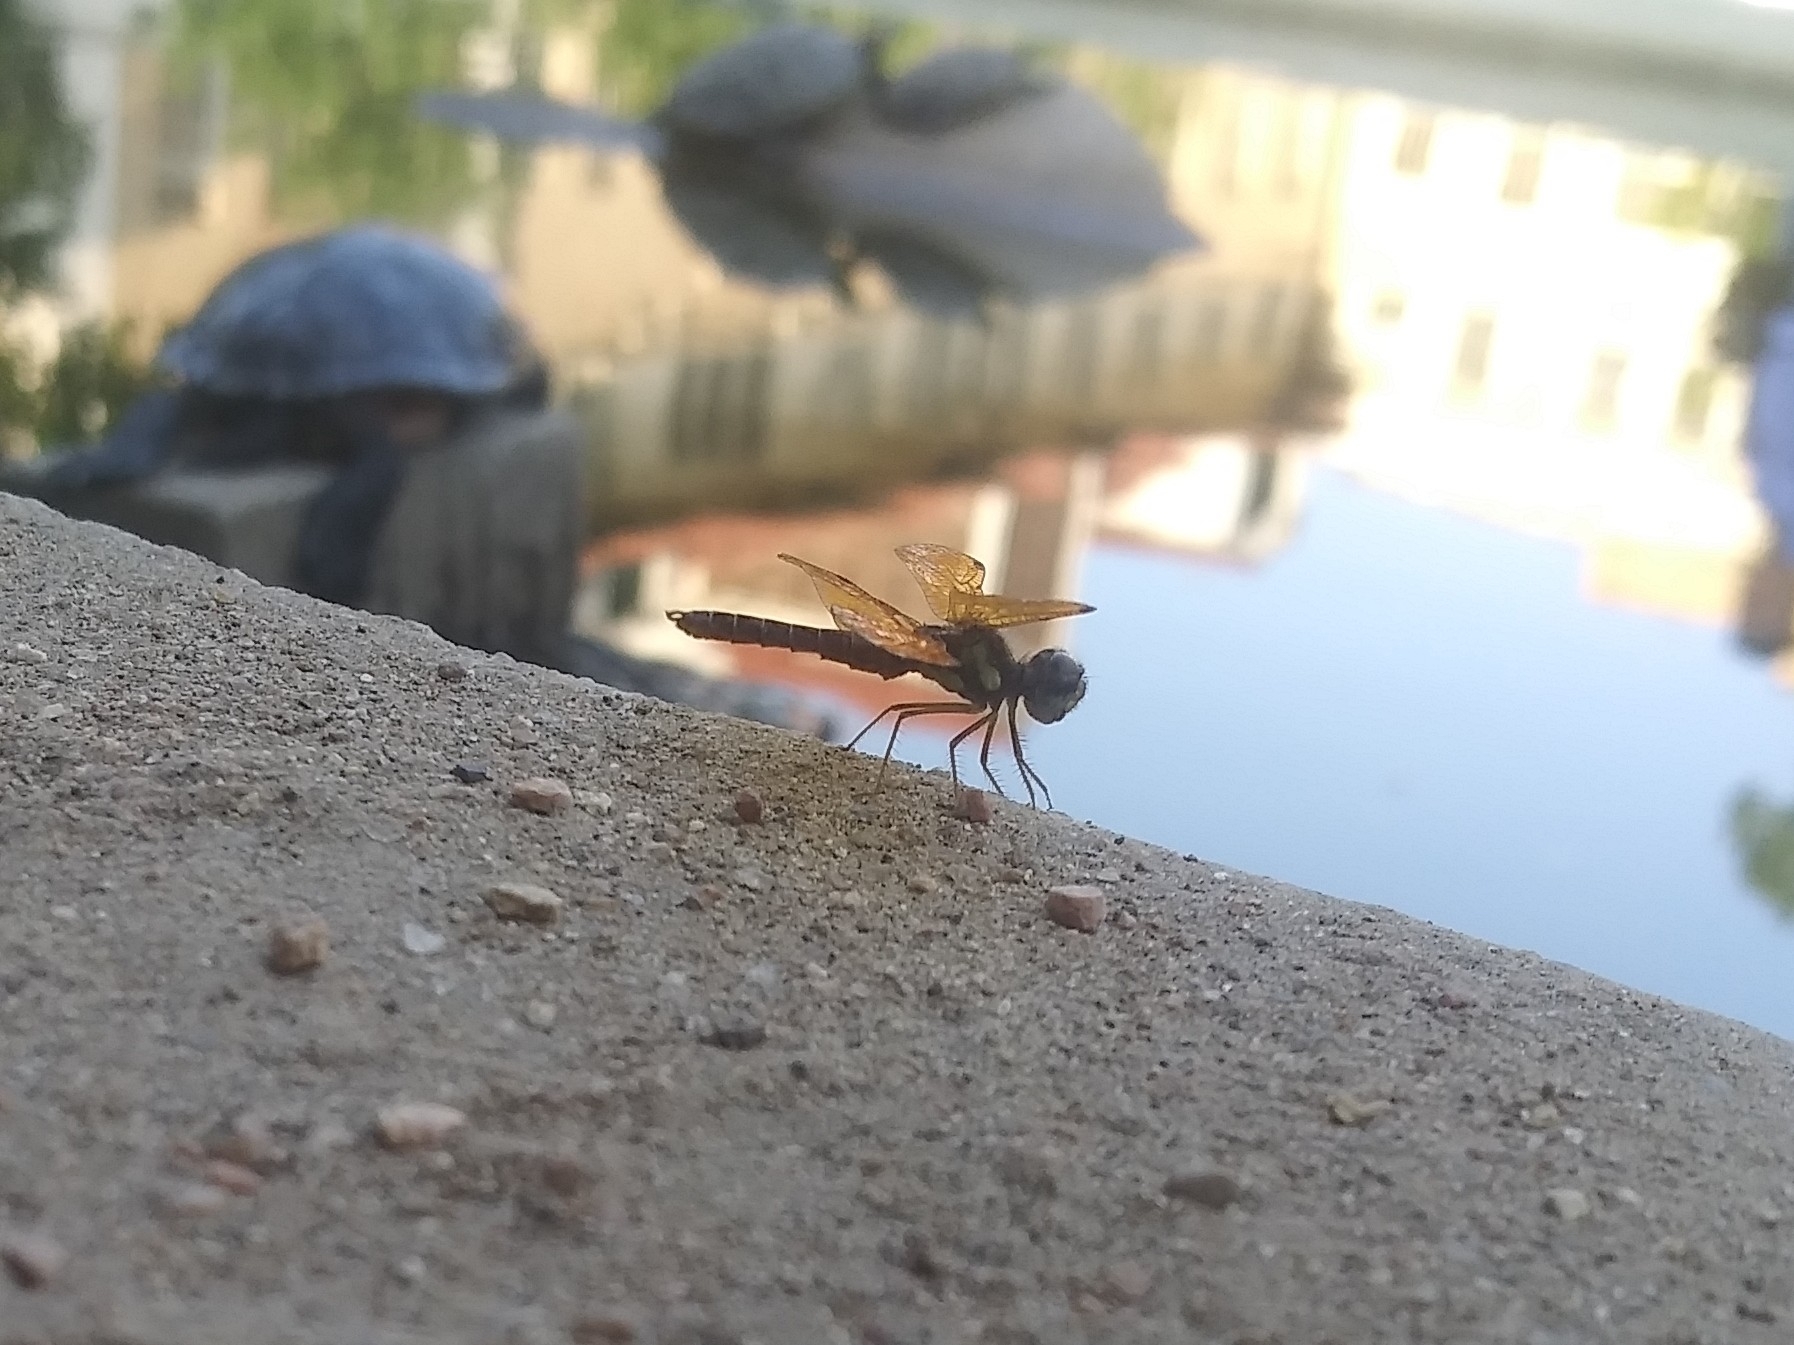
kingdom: Animalia
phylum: Arthropoda
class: Insecta
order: Odonata
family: Libellulidae
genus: Perithemis
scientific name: Perithemis tenera
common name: Eastern amberwing
